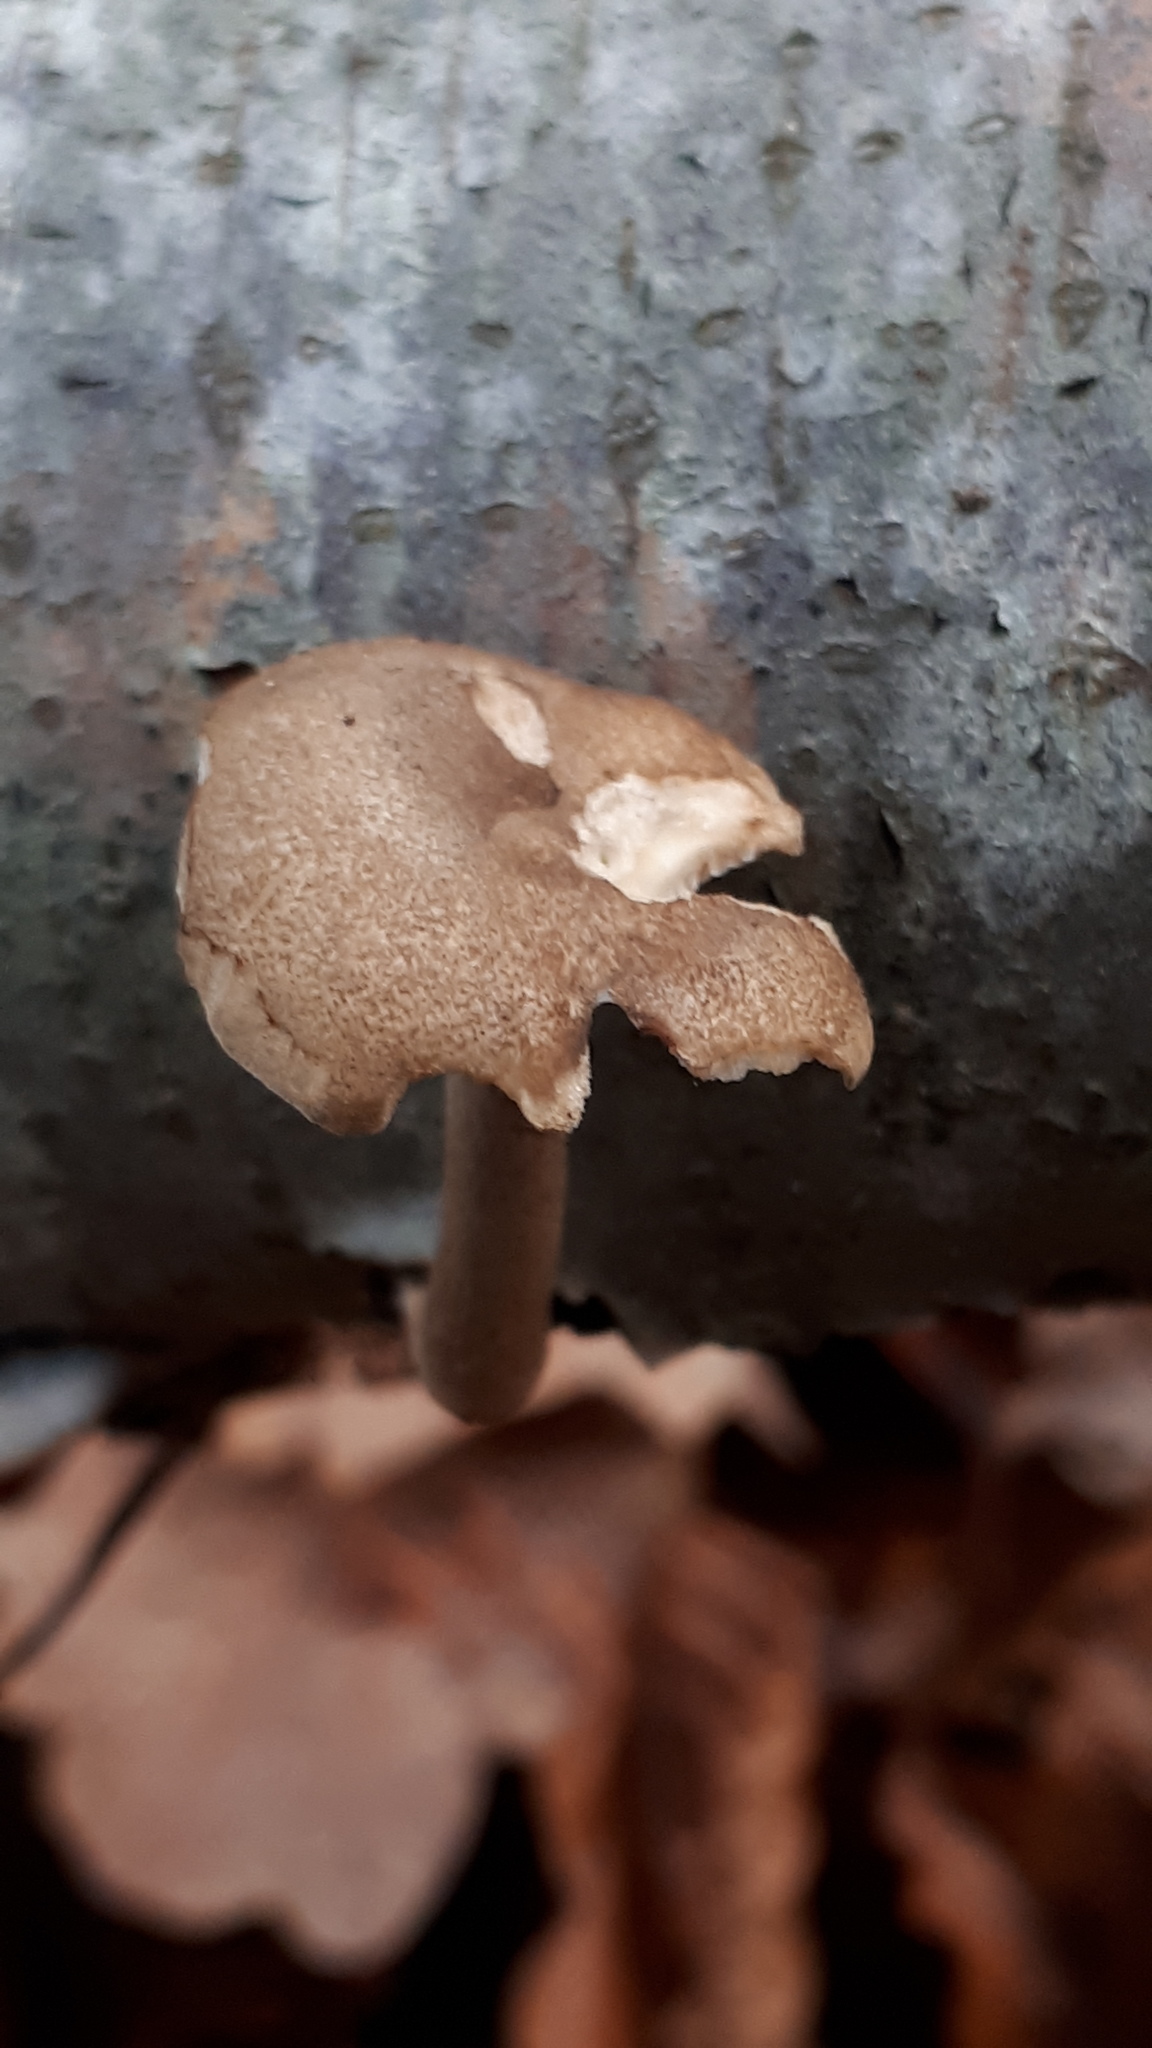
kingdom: Fungi
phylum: Basidiomycota
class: Agaricomycetes
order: Polyporales
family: Polyporaceae
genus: Lentinus
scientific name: Lentinus brumalis
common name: Winter polypore
